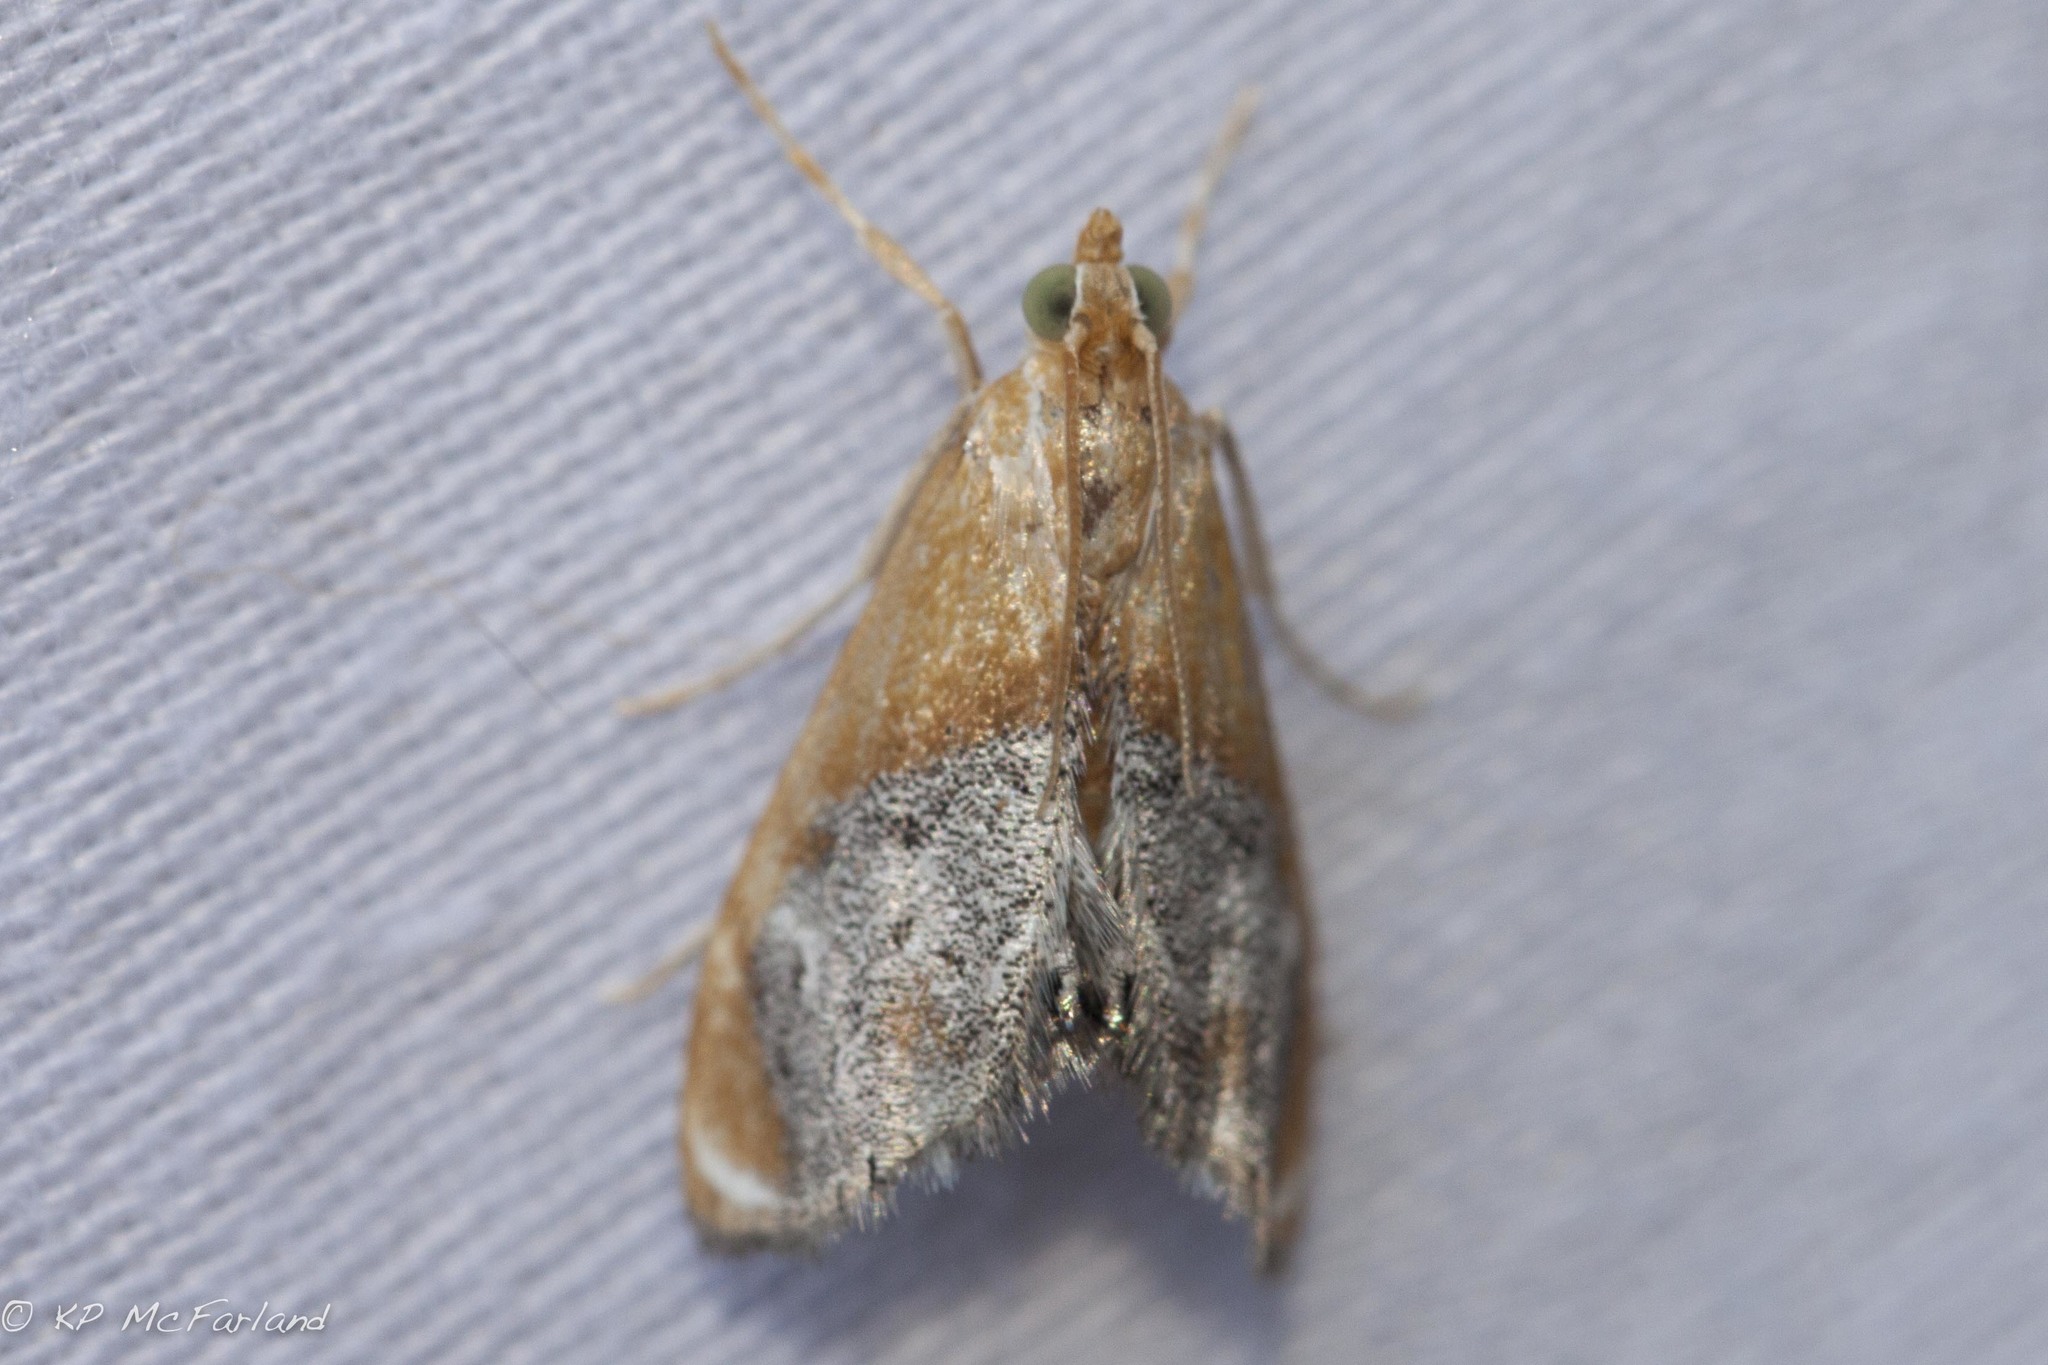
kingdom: Animalia
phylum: Arthropoda
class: Insecta
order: Lepidoptera
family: Crambidae
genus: Chalcoela
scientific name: Chalcoela iphitalis
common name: Sooty-winged chalcoela moth
